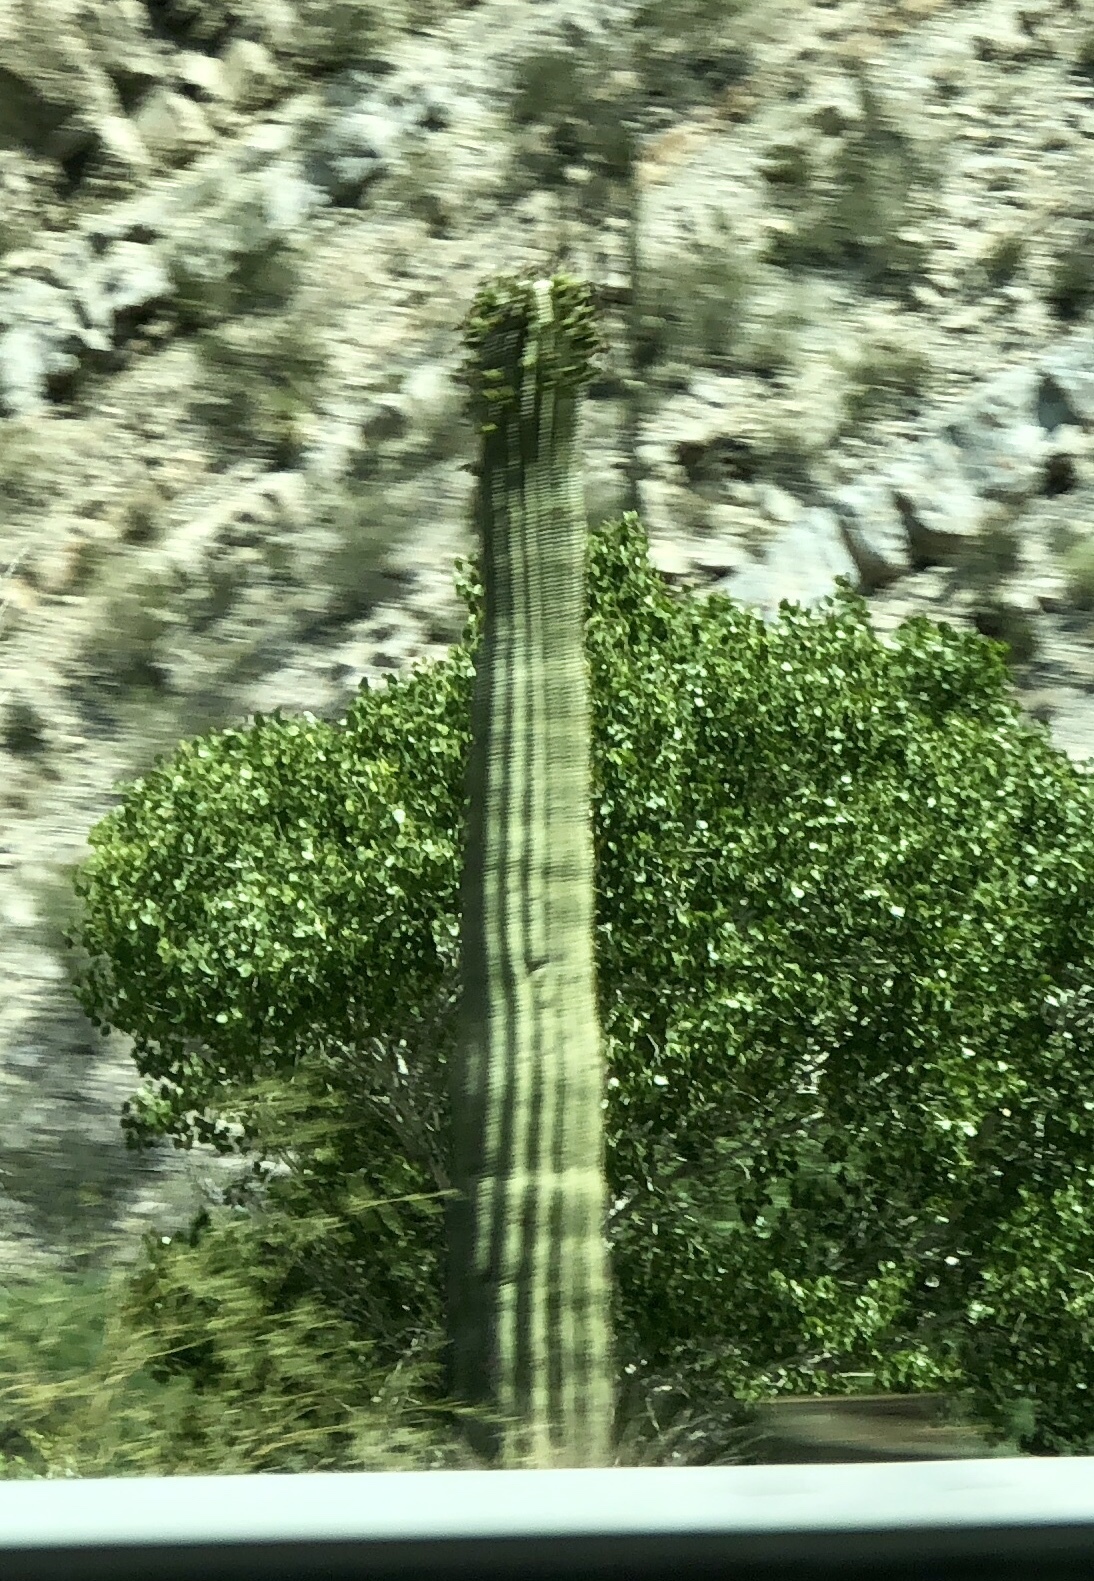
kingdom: Plantae
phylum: Tracheophyta
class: Magnoliopsida
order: Caryophyllales
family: Cactaceae
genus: Carnegiea
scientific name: Carnegiea gigantea
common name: Saguaro
